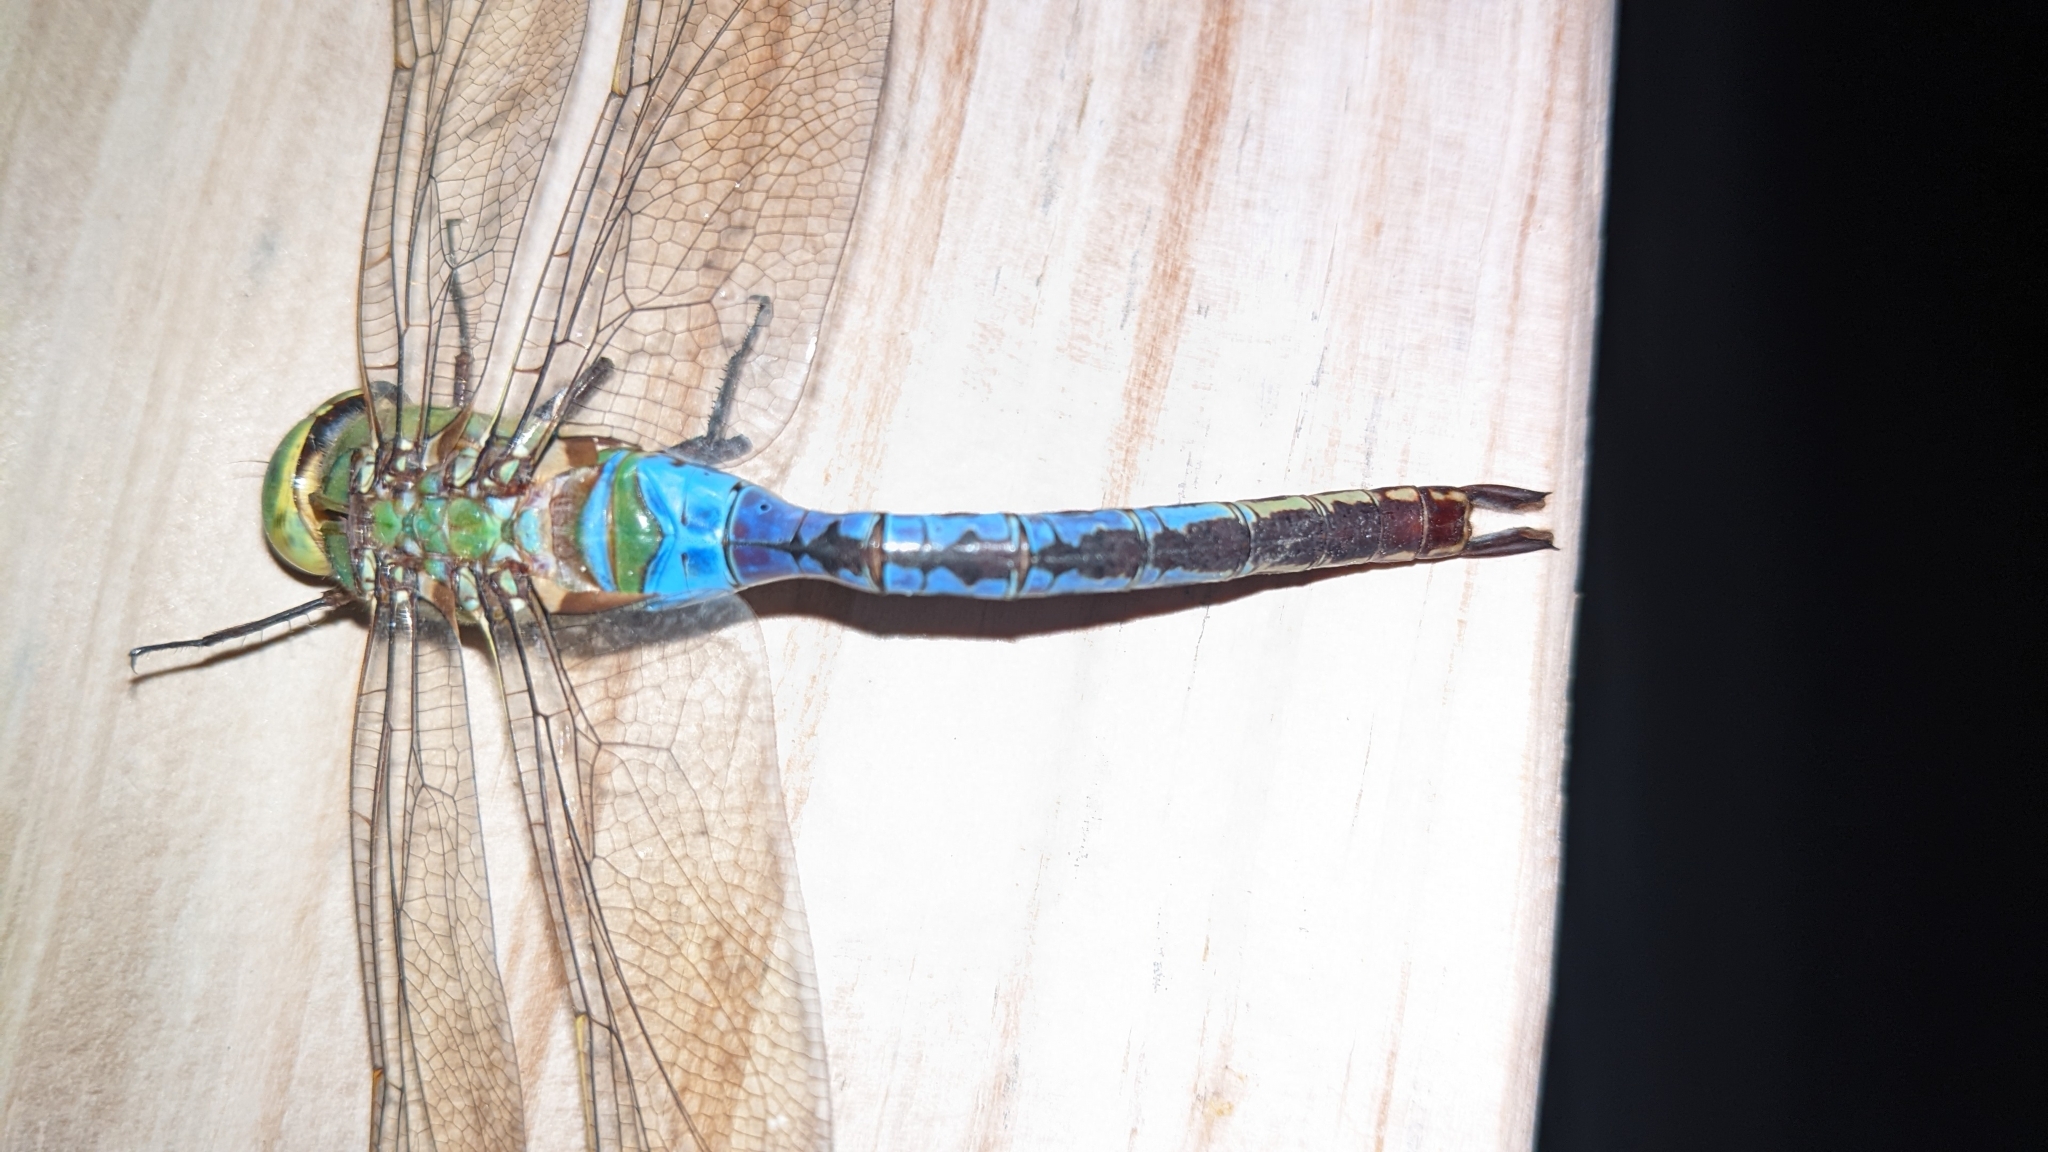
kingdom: Animalia
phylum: Arthropoda
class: Insecta
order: Odonata
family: Aeshnidae
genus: Anax
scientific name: Anax junius
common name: Common green darner
